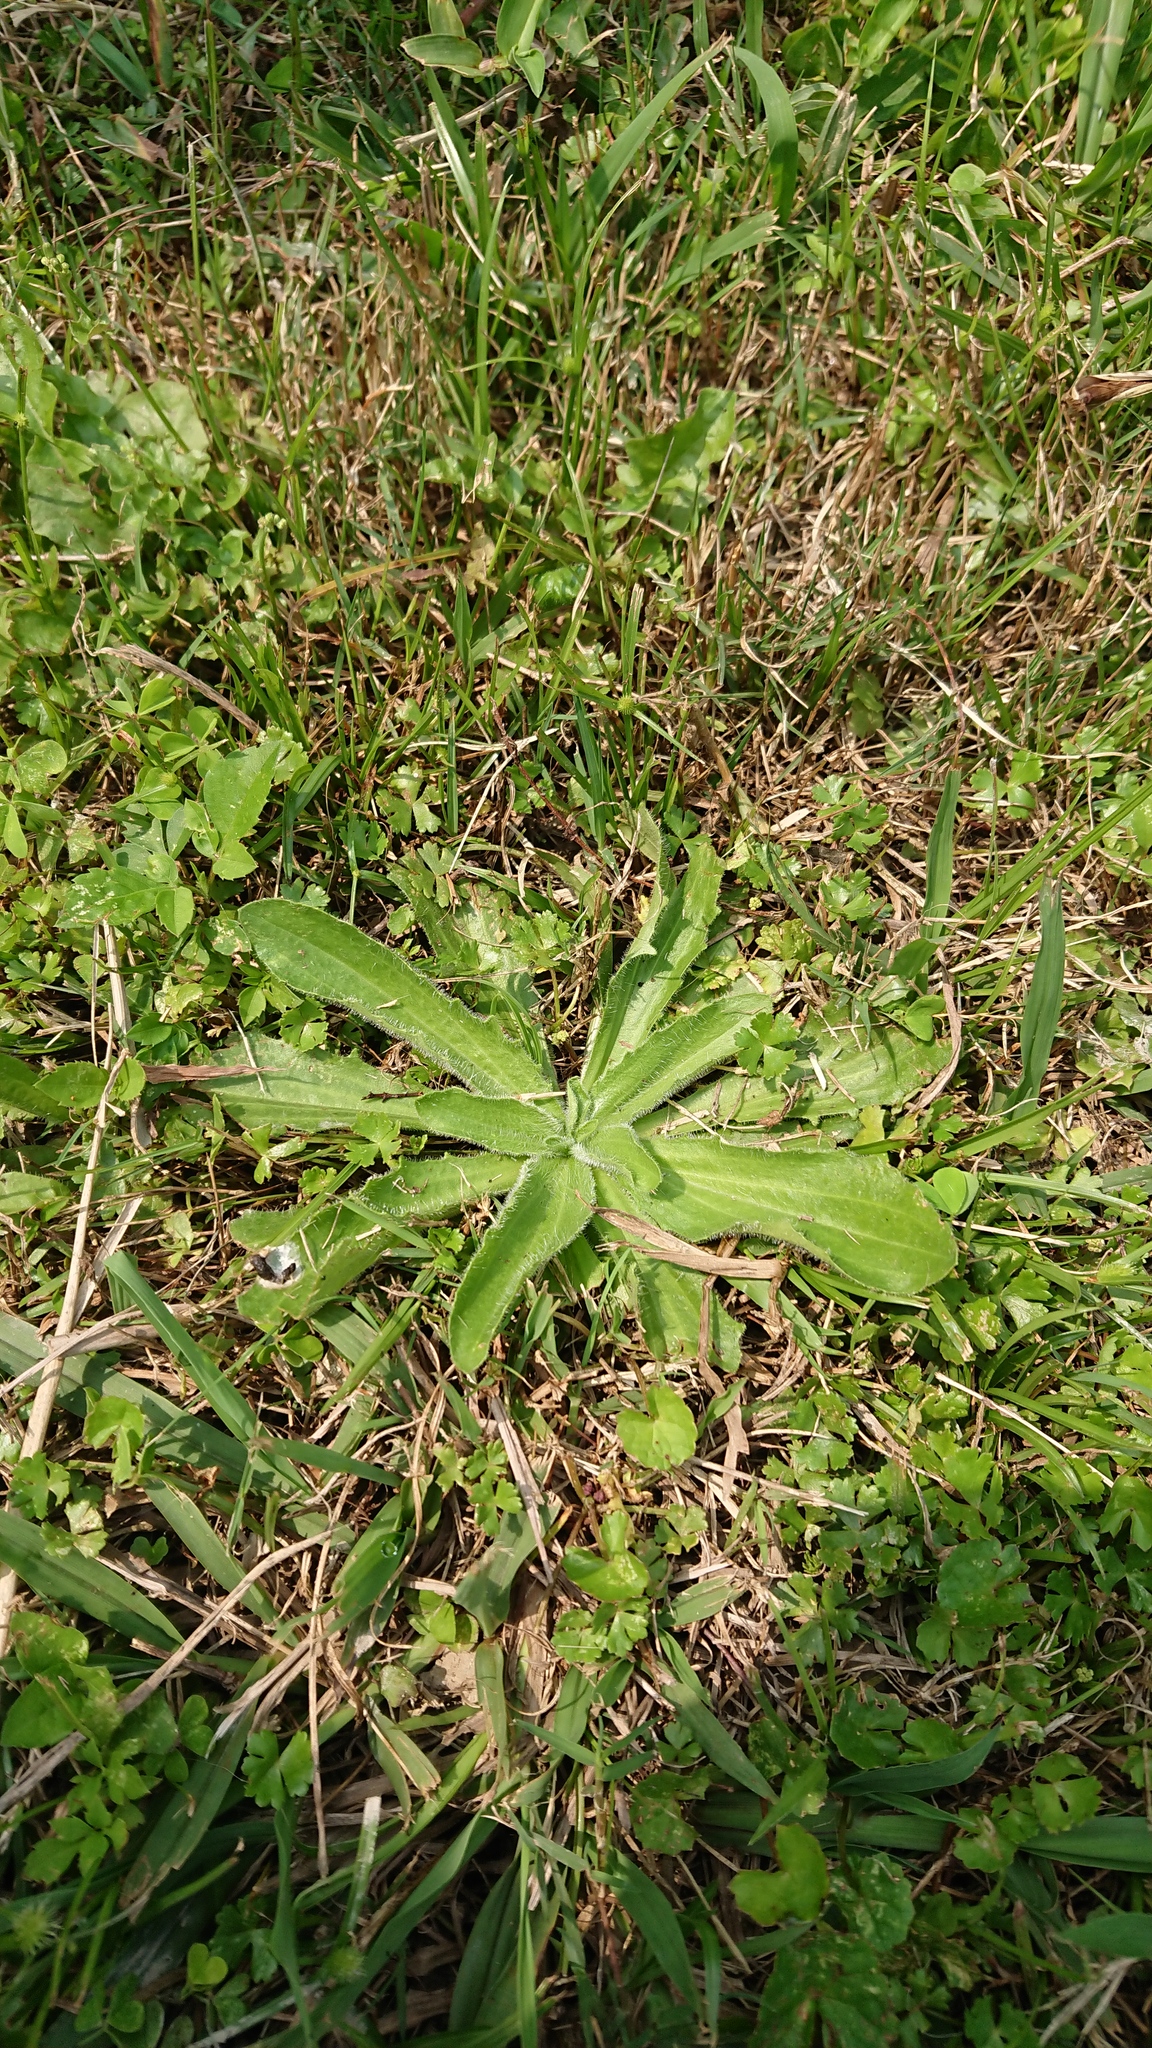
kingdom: Plantae
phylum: Tracheophyta
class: Magnoliopsida
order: Lamiales
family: Plantaginaceae
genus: Plantago
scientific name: Plantago virginica
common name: Hoary plantain
